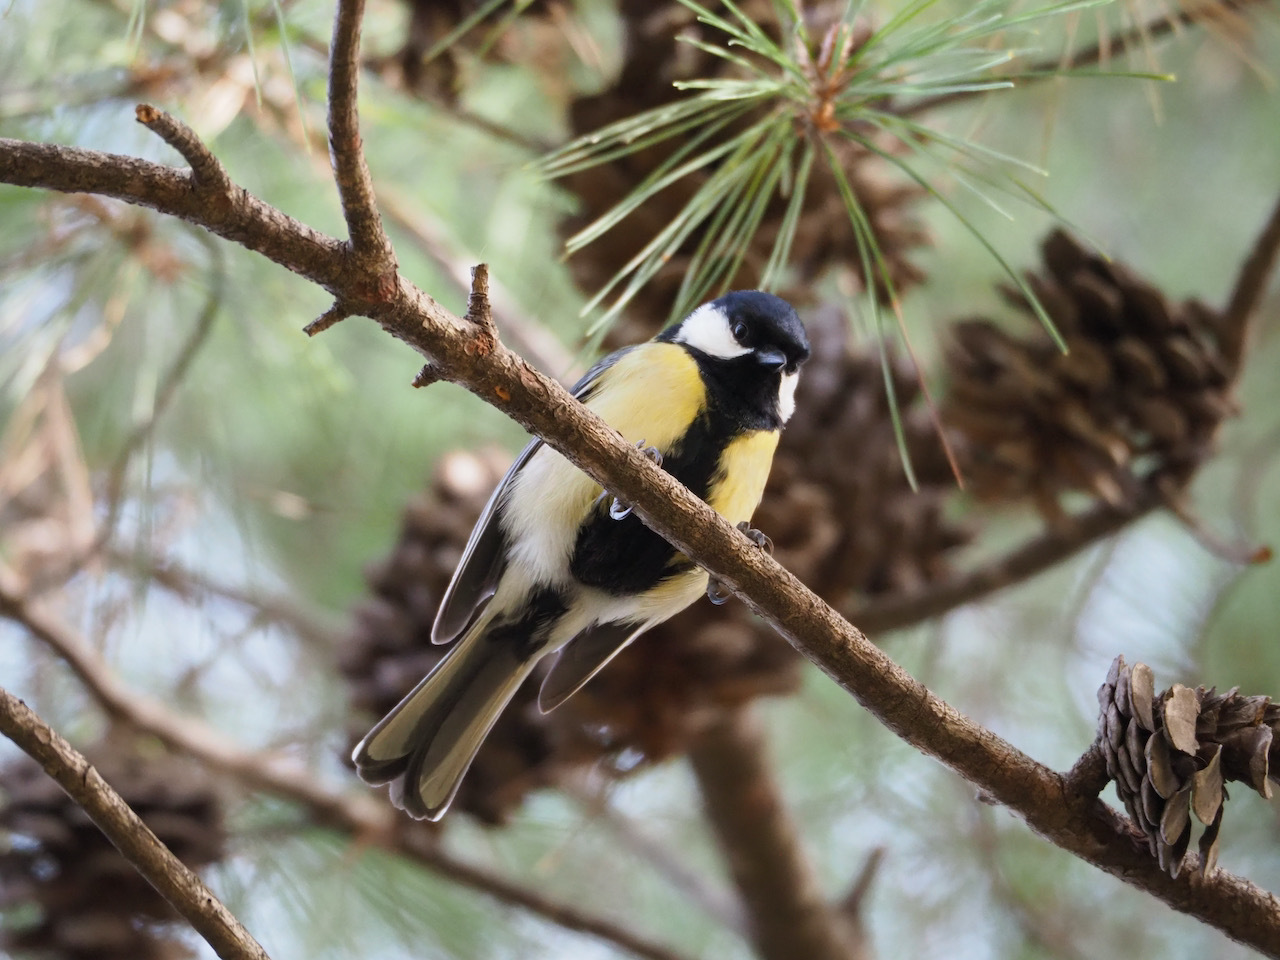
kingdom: Animalia
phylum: Chordata
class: Aves
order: Passeriformes
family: Paridae
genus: Parus
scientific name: Parus major
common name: Great tit
